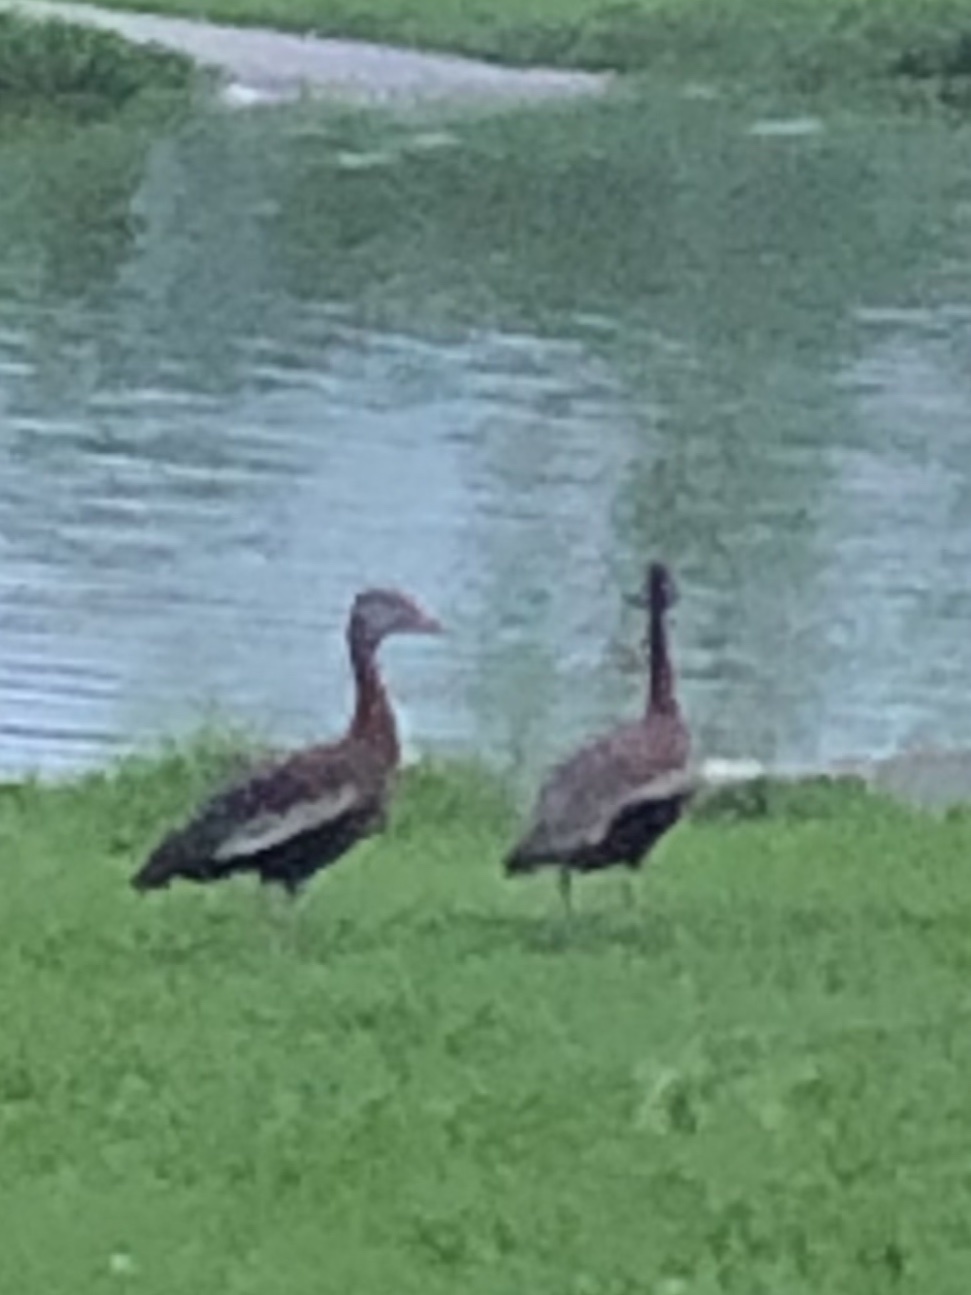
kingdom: Animalia
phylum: Chordata
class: Aves
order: Anseriformes
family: Anatidae
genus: Dendrocygna
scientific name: Dendrocygna autumnalis
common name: Black-bellied whistling duck
